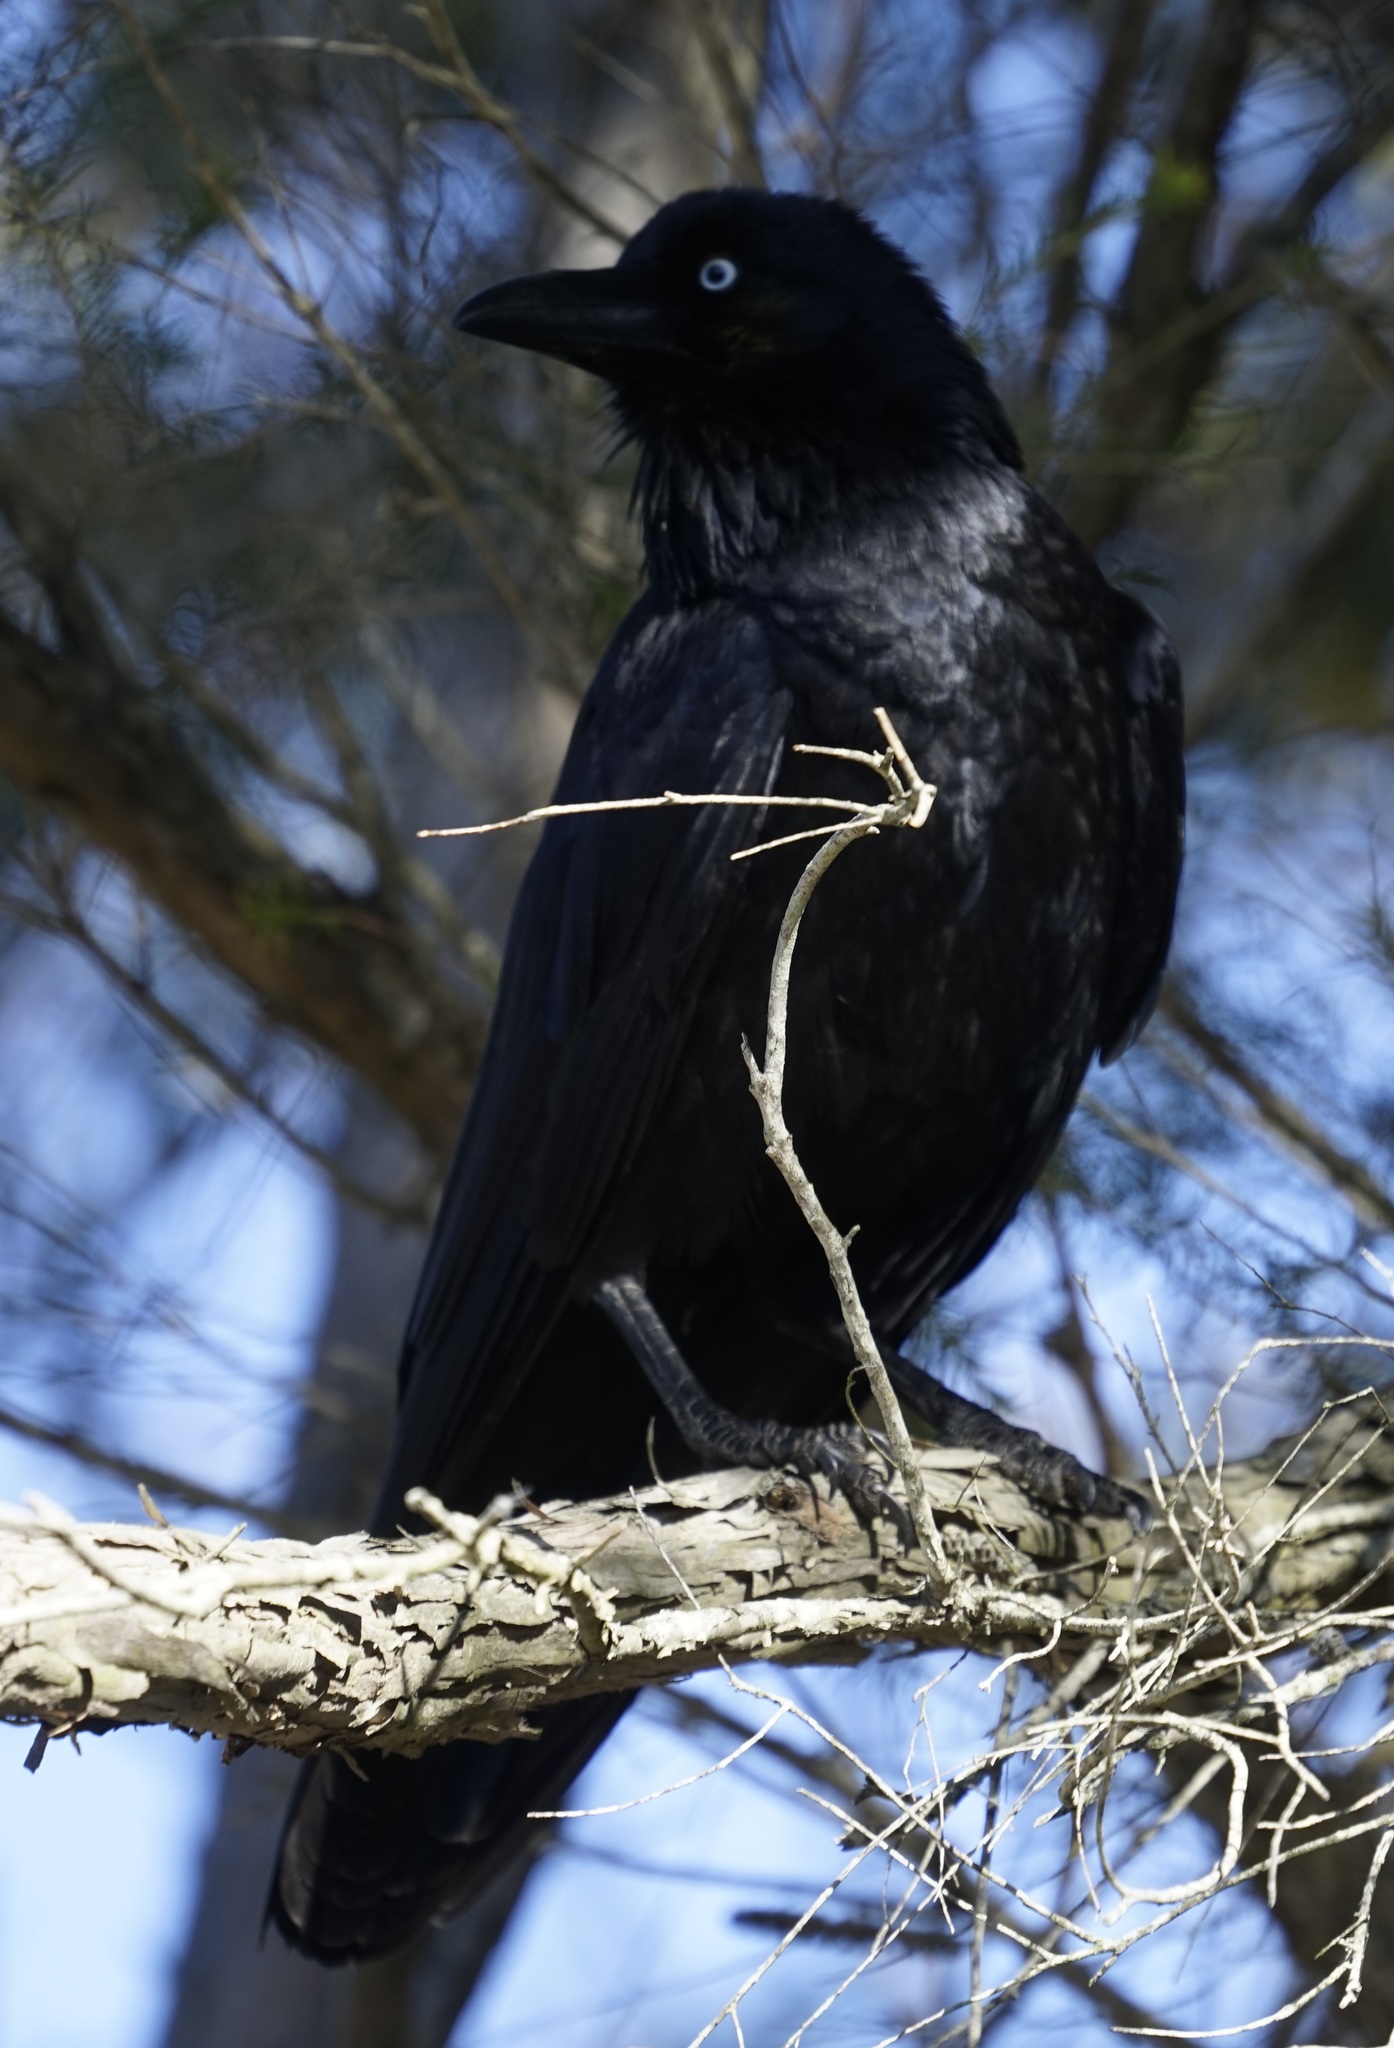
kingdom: Animalia
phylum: Chordata
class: Aves
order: Passeriformes
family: Corvidae
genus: Corvus
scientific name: Corvus coronoides
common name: Australian raven
